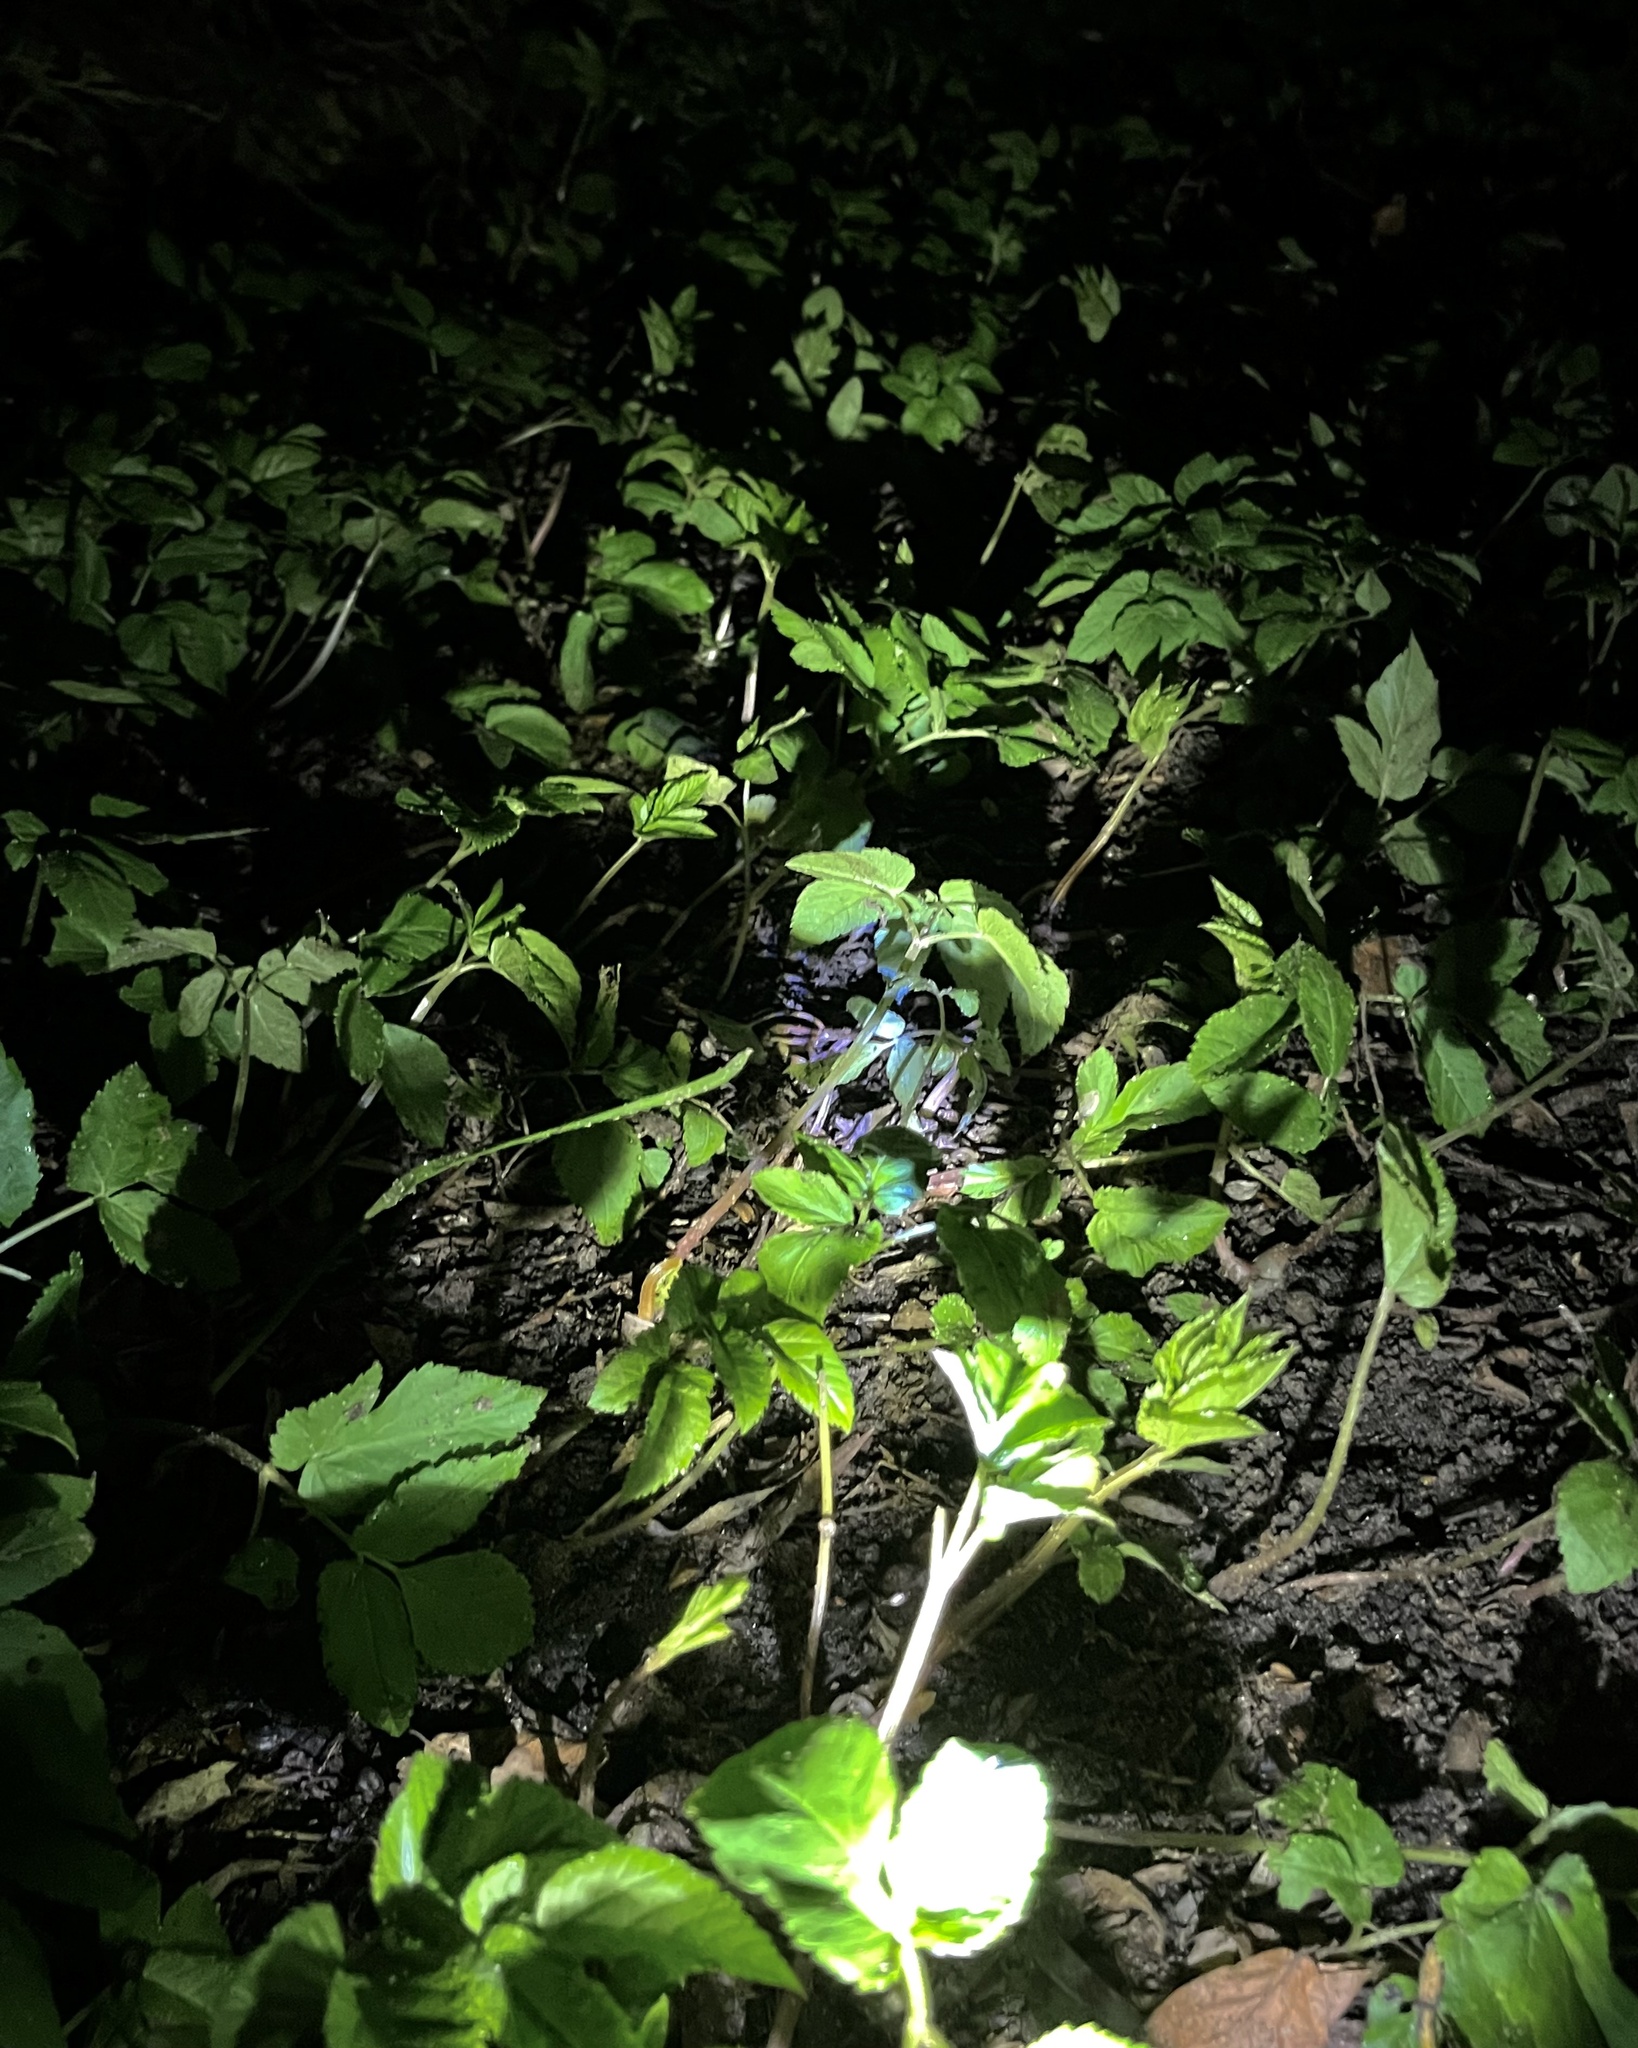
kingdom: Plantae
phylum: Tracheophyta
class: Magnoliopsida
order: Apiales
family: Apiaceae
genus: Aegopodium
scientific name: Aegopodium podagraria
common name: Ground-elder
